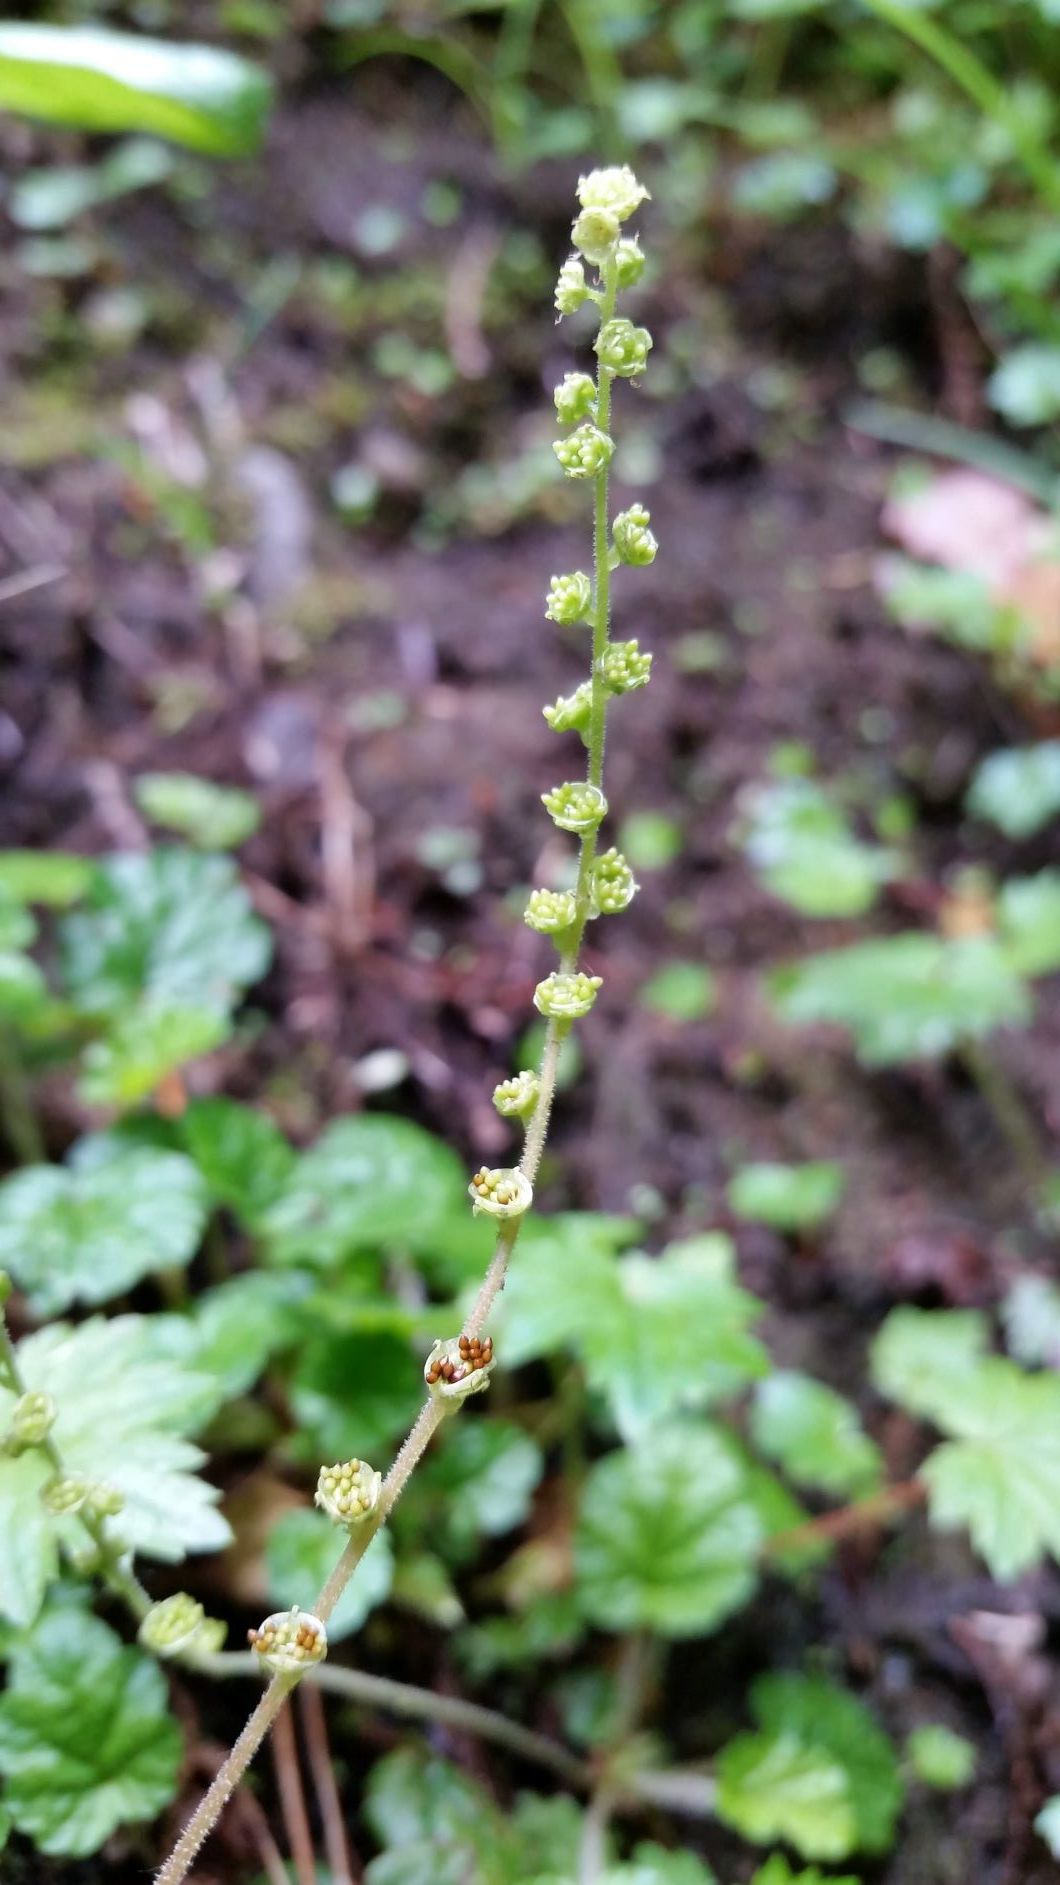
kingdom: Plantae
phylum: Tracheophyta
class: Magnoliopsida
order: Saxifragales
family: Saxifragaceae
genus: Tellima
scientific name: Tellima grandiflora
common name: Fringecups
